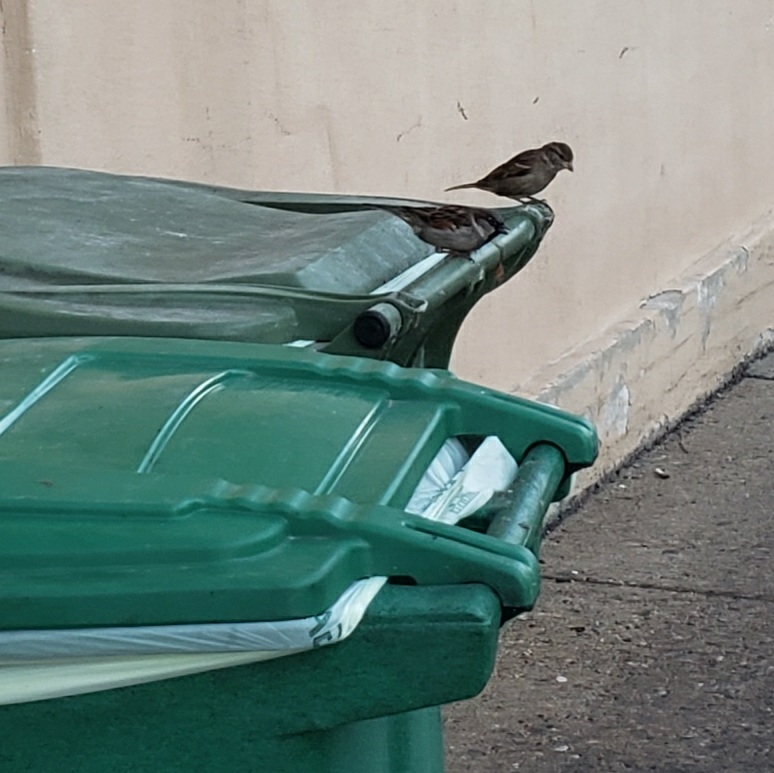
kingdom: Animalia
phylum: Chordata
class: Aves
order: Passeriformes
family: Passeridae
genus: Passer
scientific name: Passer domesticus
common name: House sparrow
